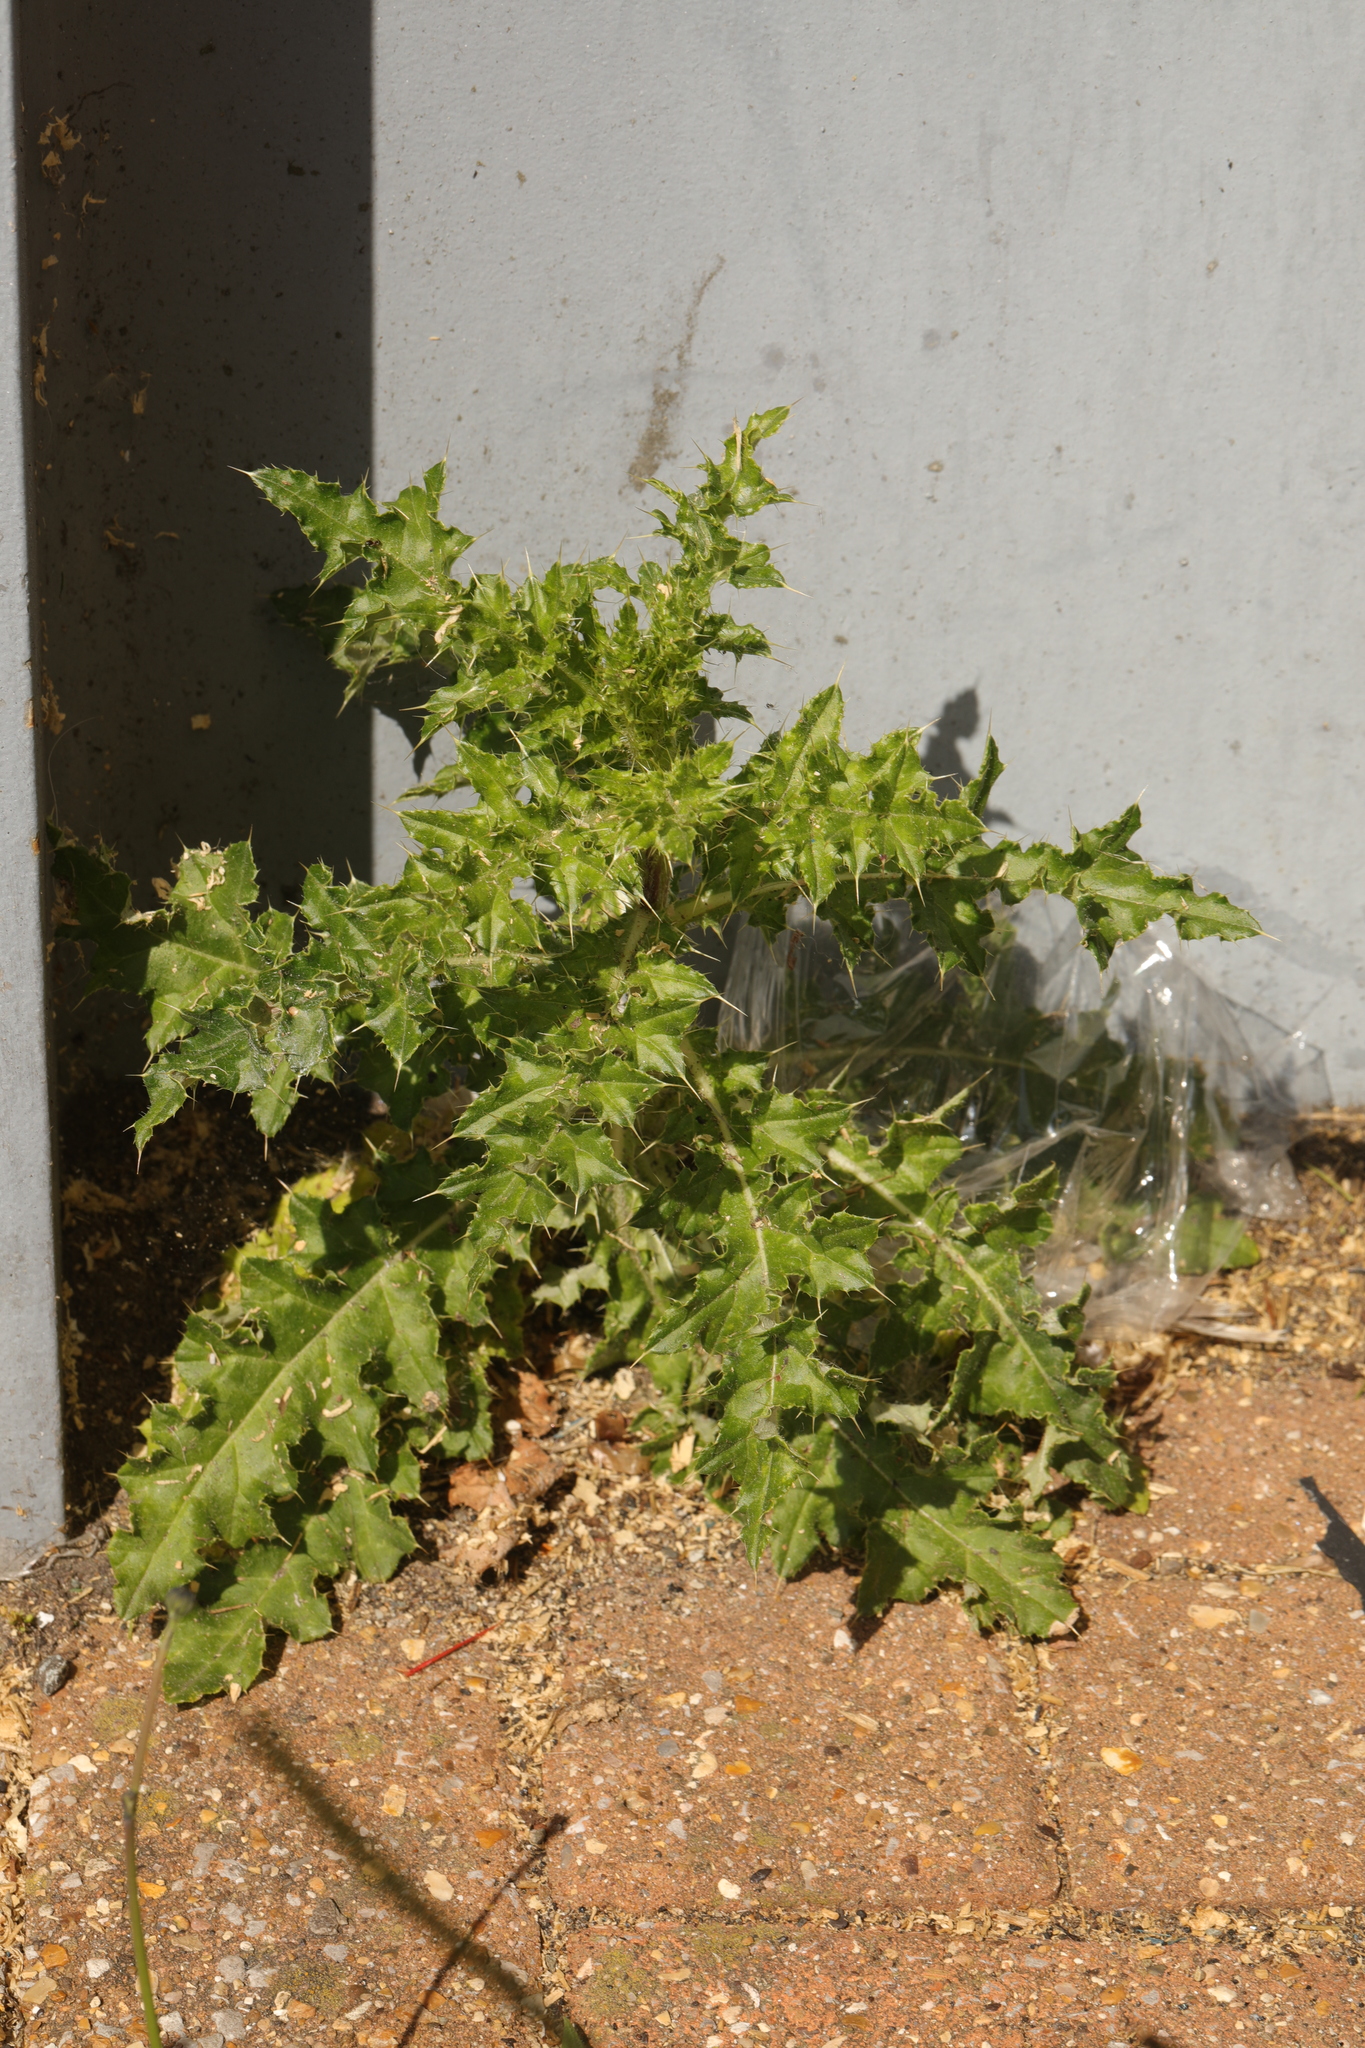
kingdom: Plantae
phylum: Tracheophyta
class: Magnoliopsida
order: Asterales
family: Asteraceae
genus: Cirsium
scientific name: Cirsium arvense
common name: Creeping thistle
